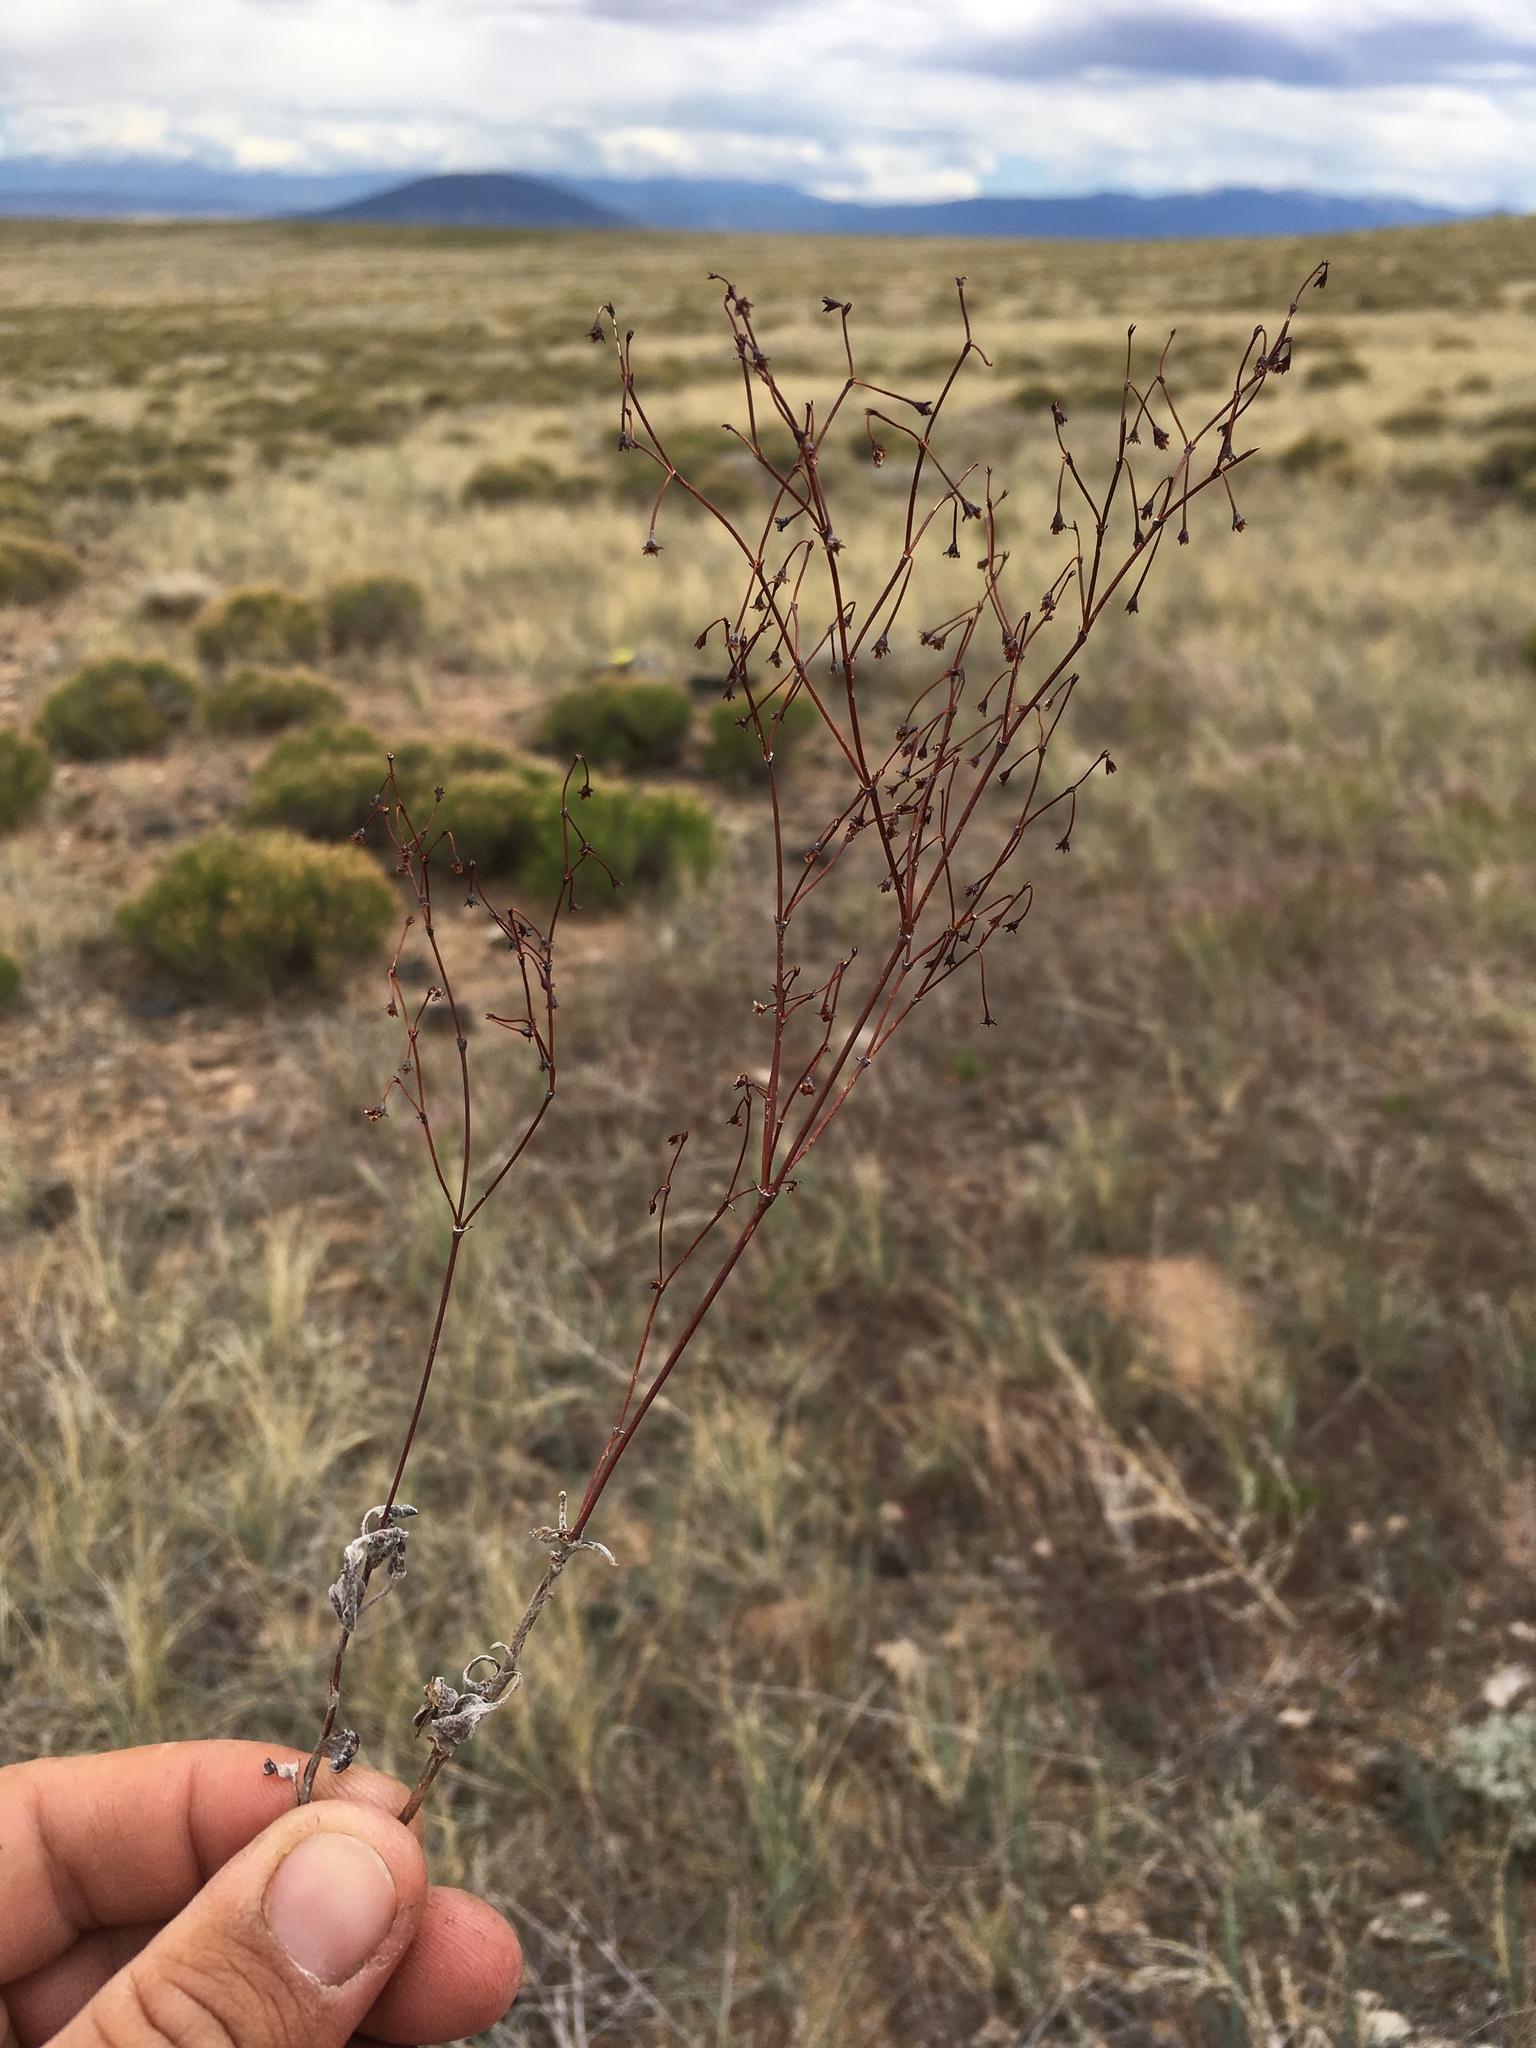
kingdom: Plantae
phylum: Tracheophyta
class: Magnoliopsida
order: Caryophyllales
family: Polygonaceae
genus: Eriogonum
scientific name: Eriogonum cernuum
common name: Nodding wild buckwheat
